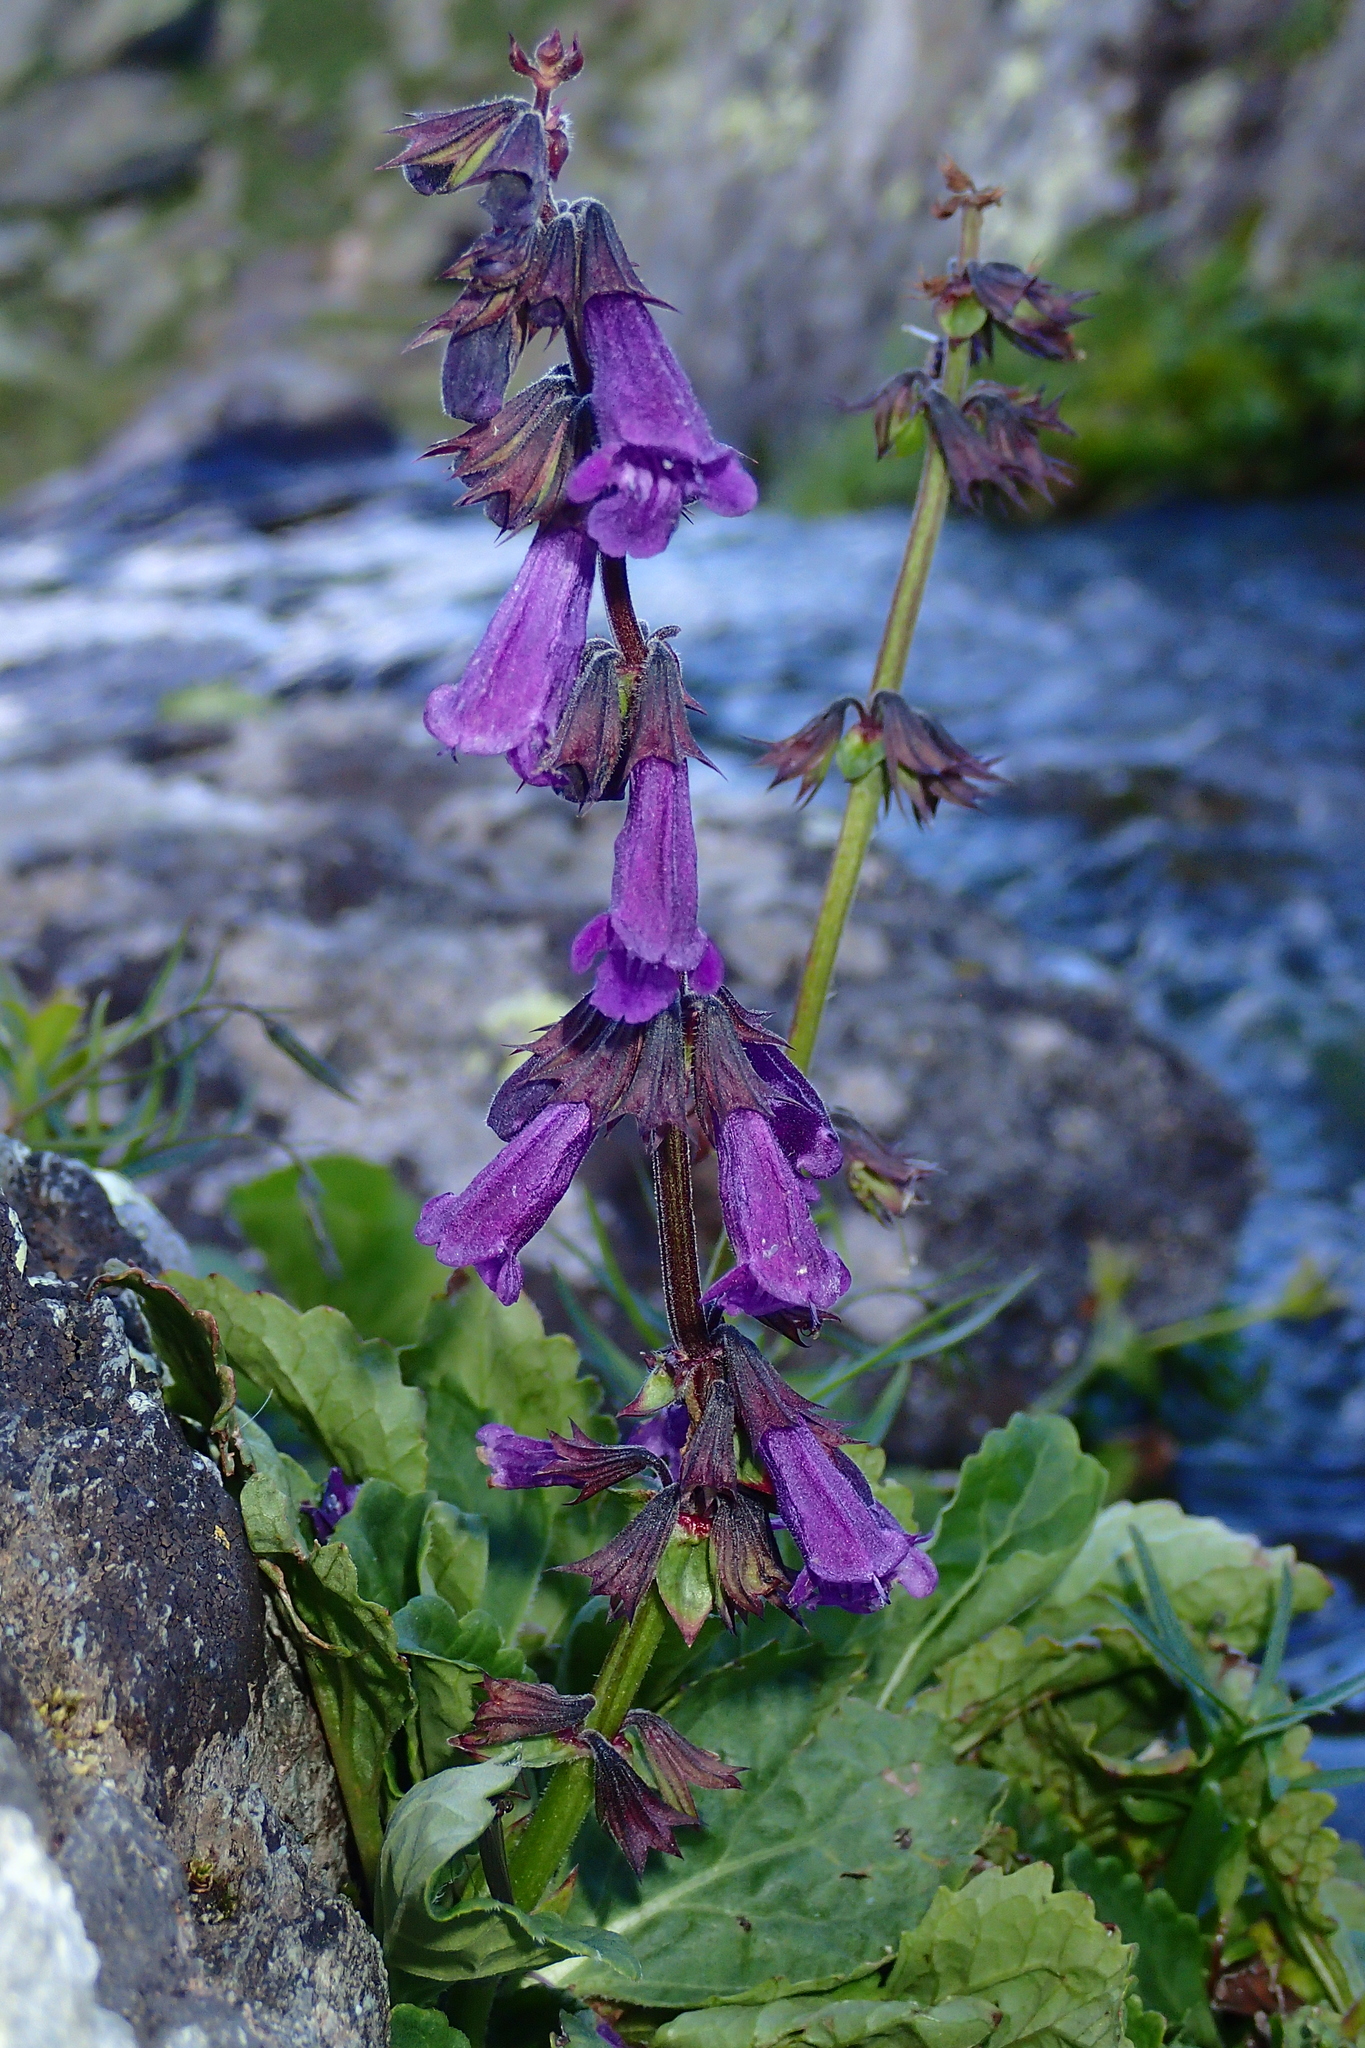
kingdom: Plantae
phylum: Tracheophyta
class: Magnoliopsida
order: Lamiales
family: Lamiaceae
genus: Horminum
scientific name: Horminum pyrenaicum
